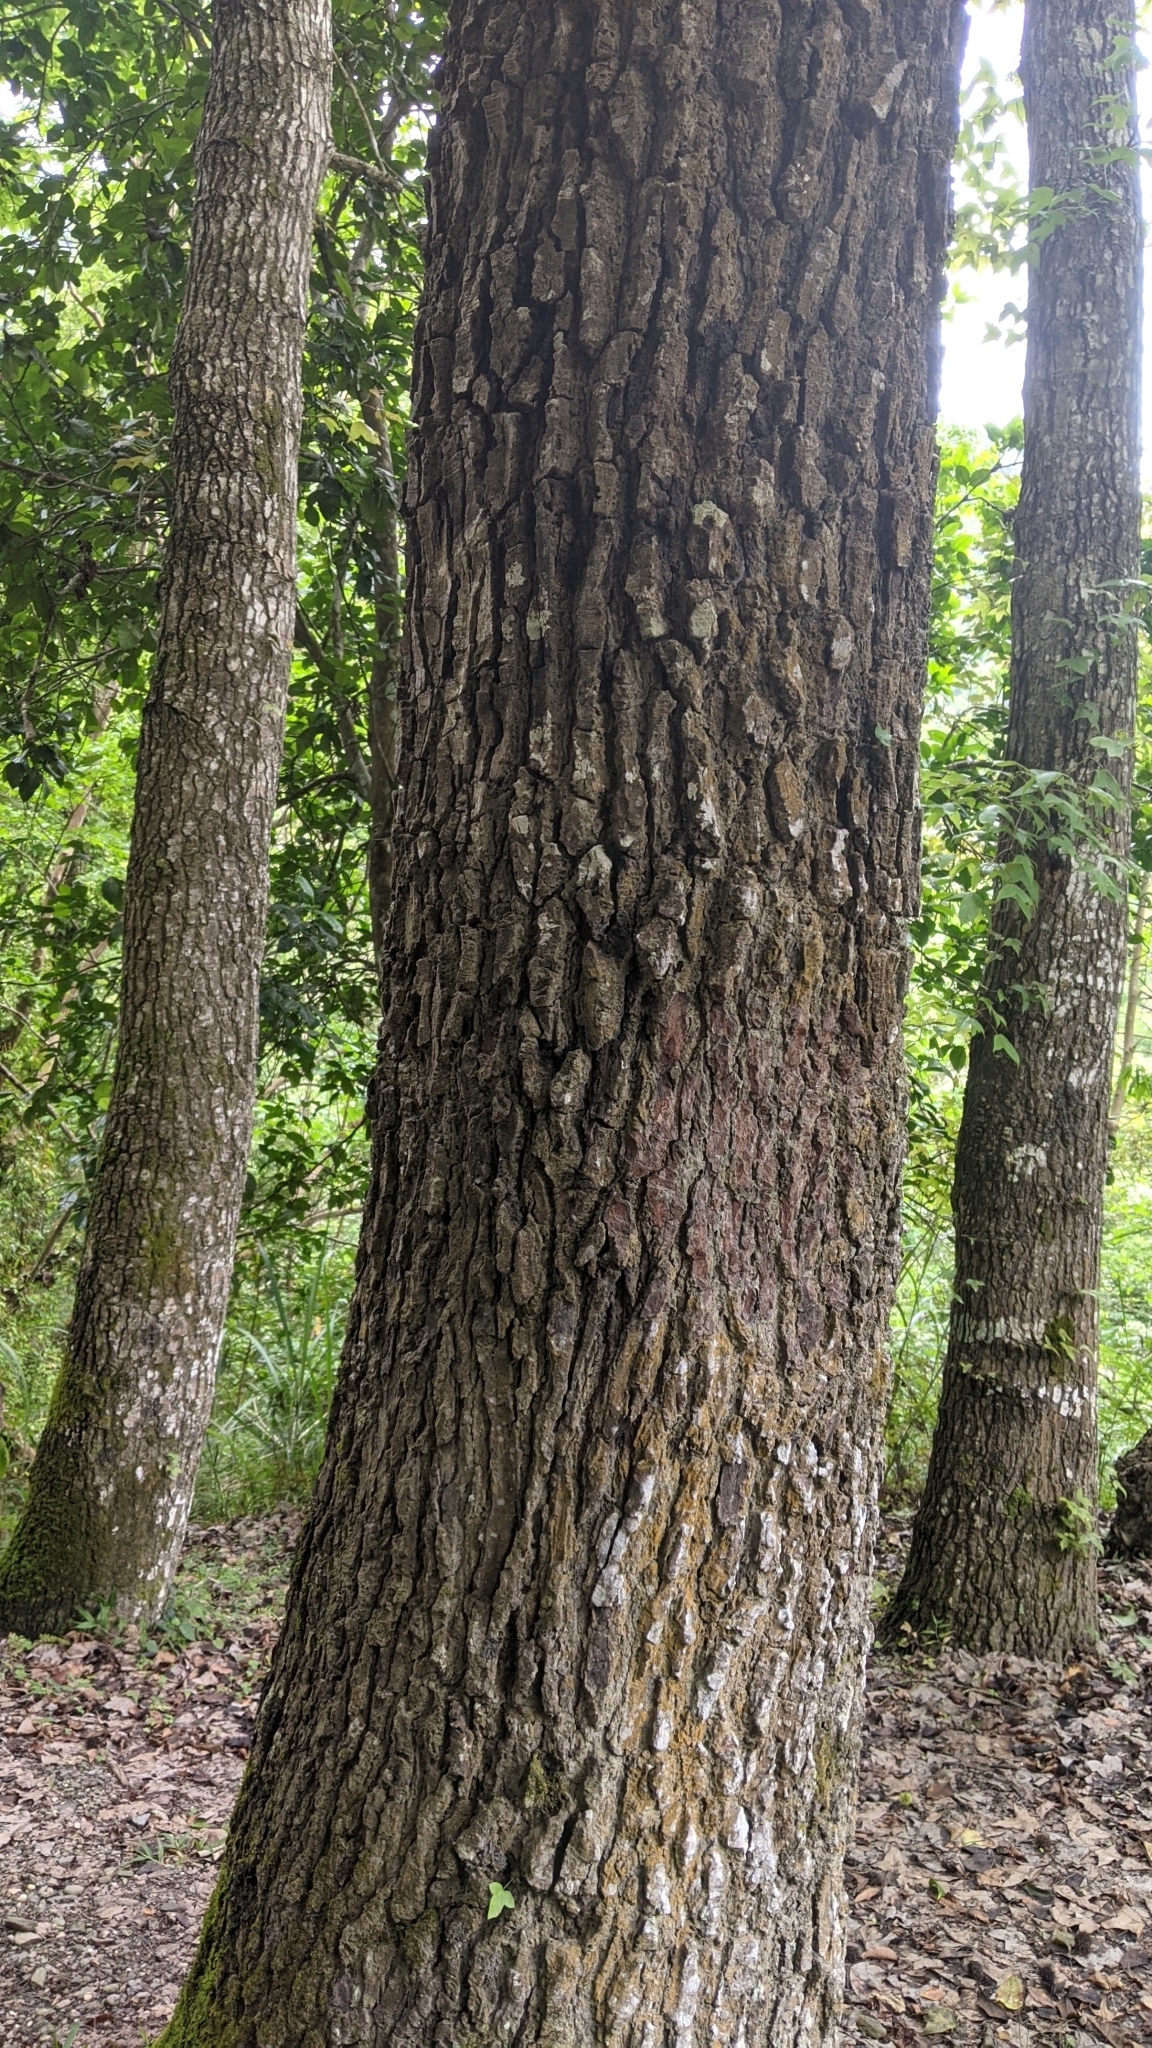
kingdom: Plantae
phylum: Tracheophyta
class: Magnoliopsida
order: Saxifragales
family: Altingiaceae
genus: Liquidambar
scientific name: Liquidambar formosana
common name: Chinese sweet gum
